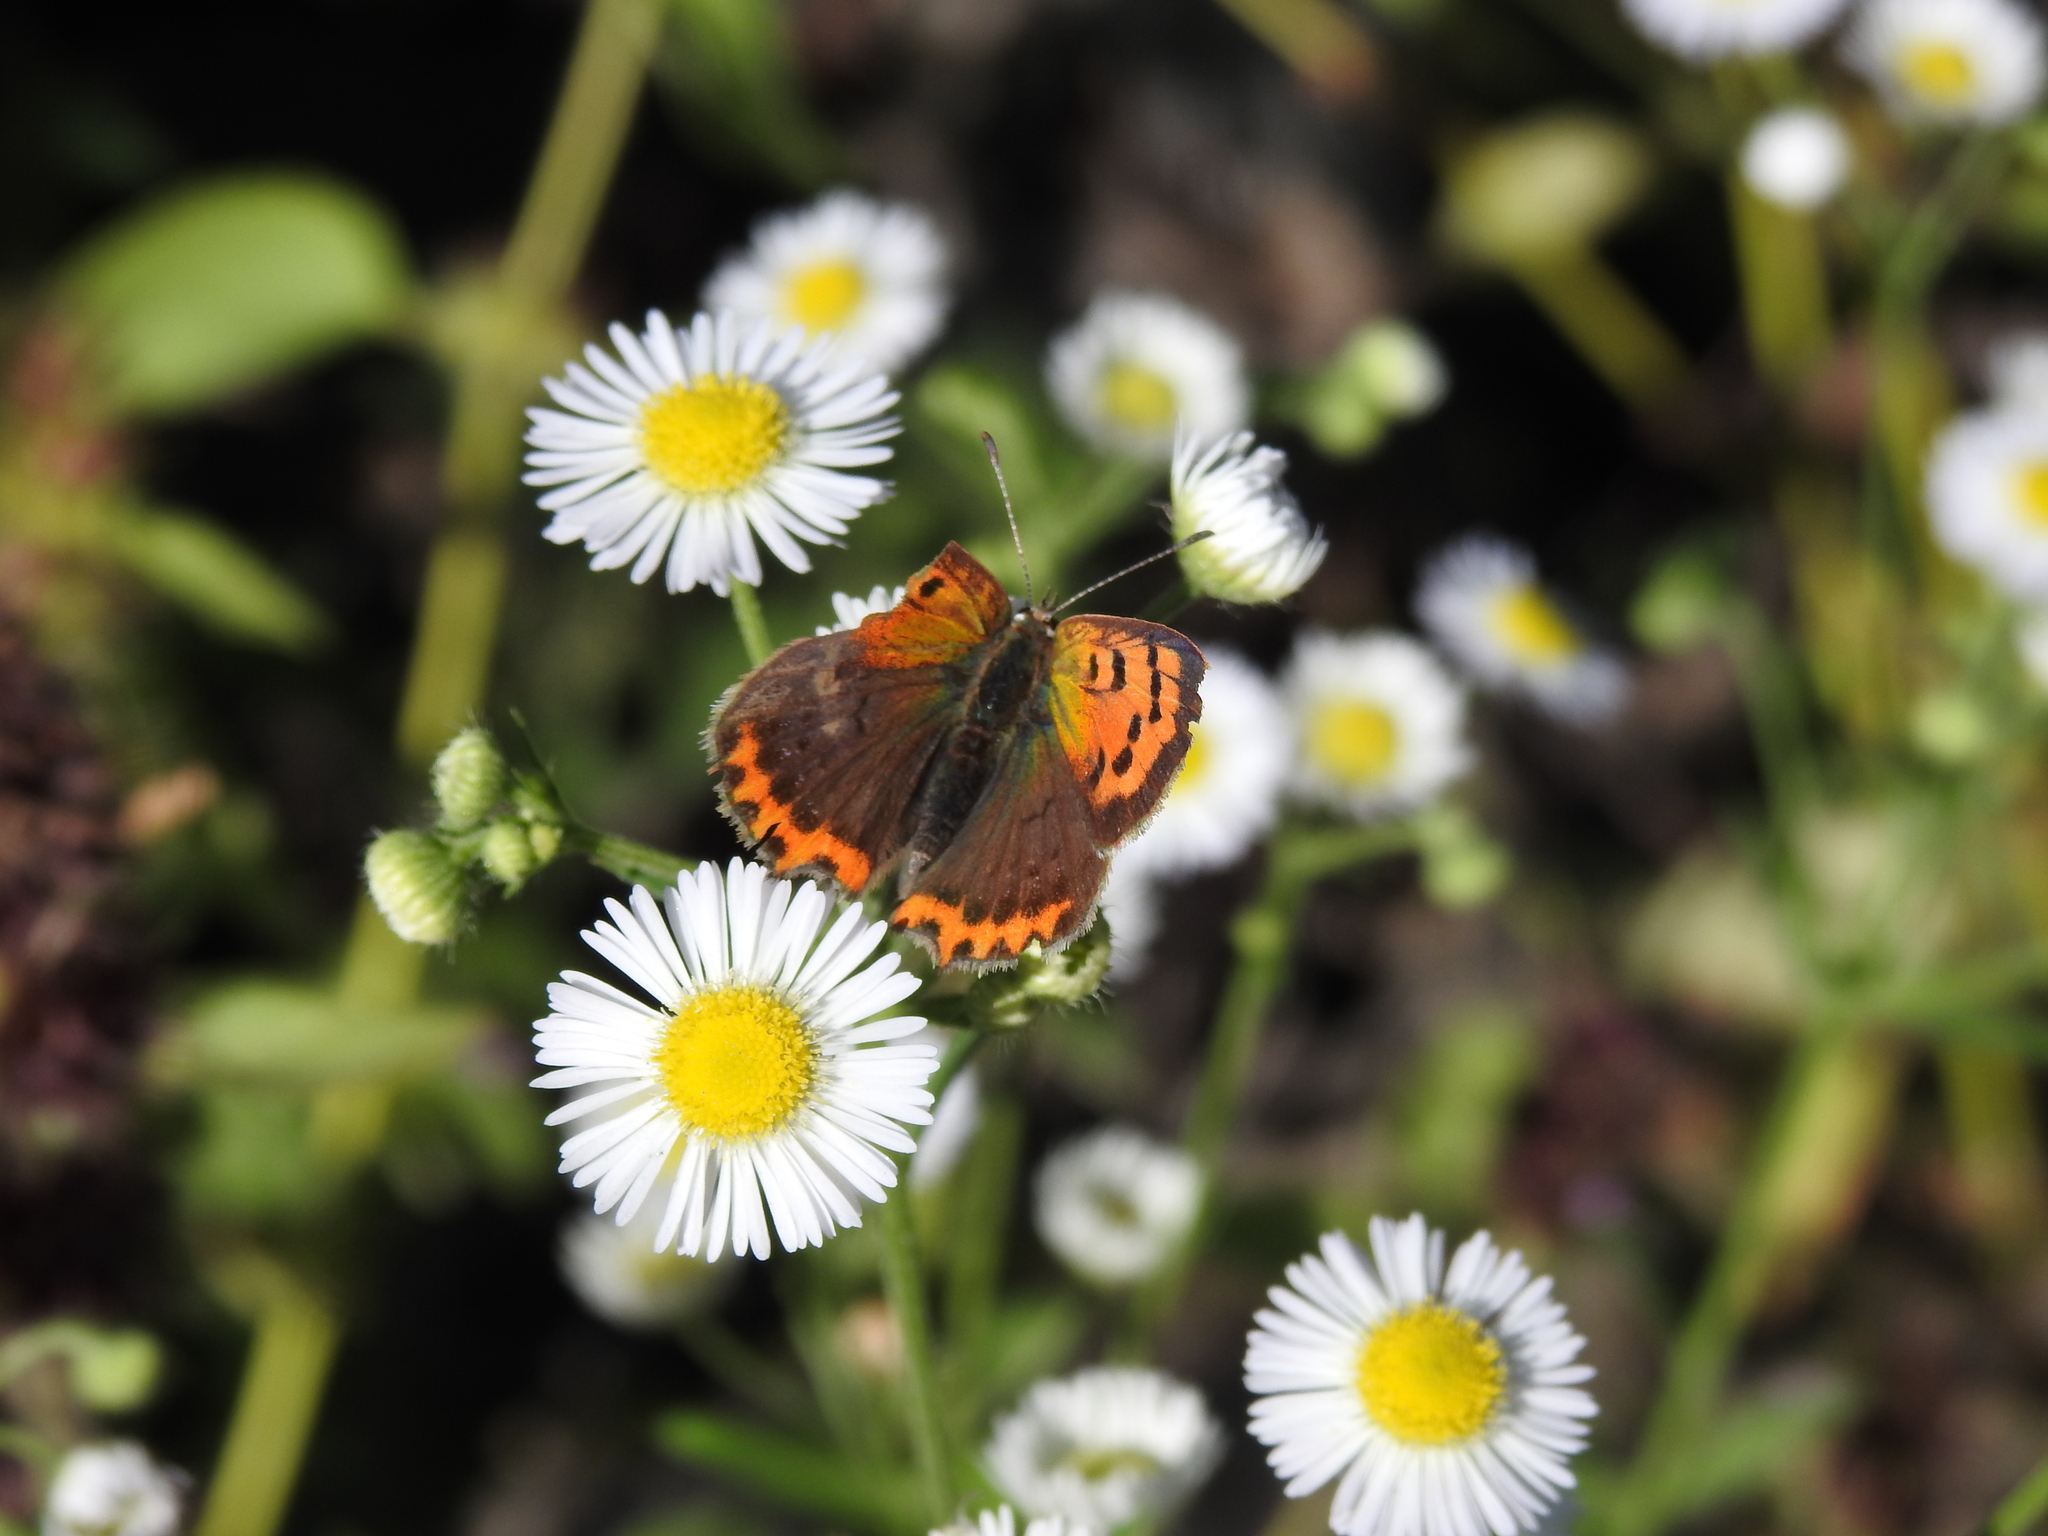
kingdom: Animalia
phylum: Arthropoda
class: Insecta
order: Lepidoptera
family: Lycaenidae
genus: Lycaena
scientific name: Lycaena phlaeas
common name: Small copper
